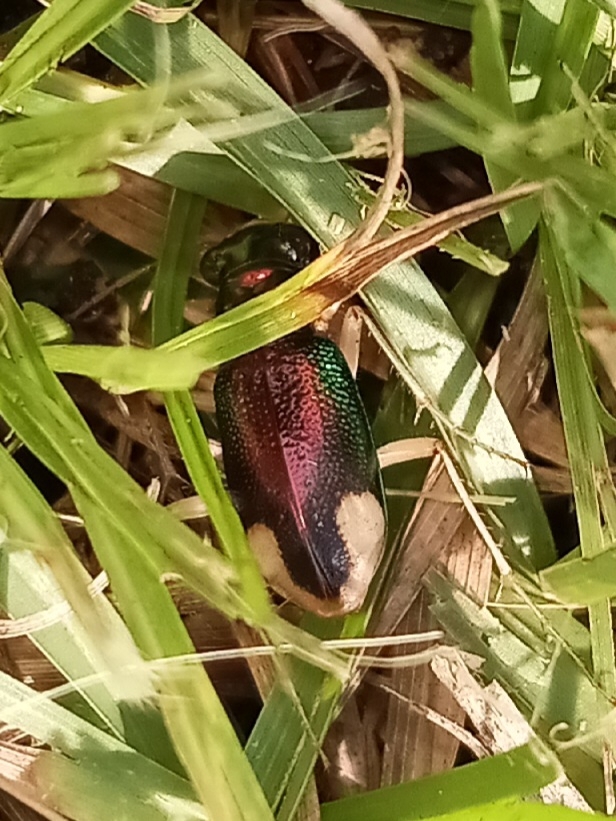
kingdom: Animalia
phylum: Arthropoda
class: Insecta
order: Coleoptera
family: Carabidae
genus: Tetracha
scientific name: Tetracha carolina
